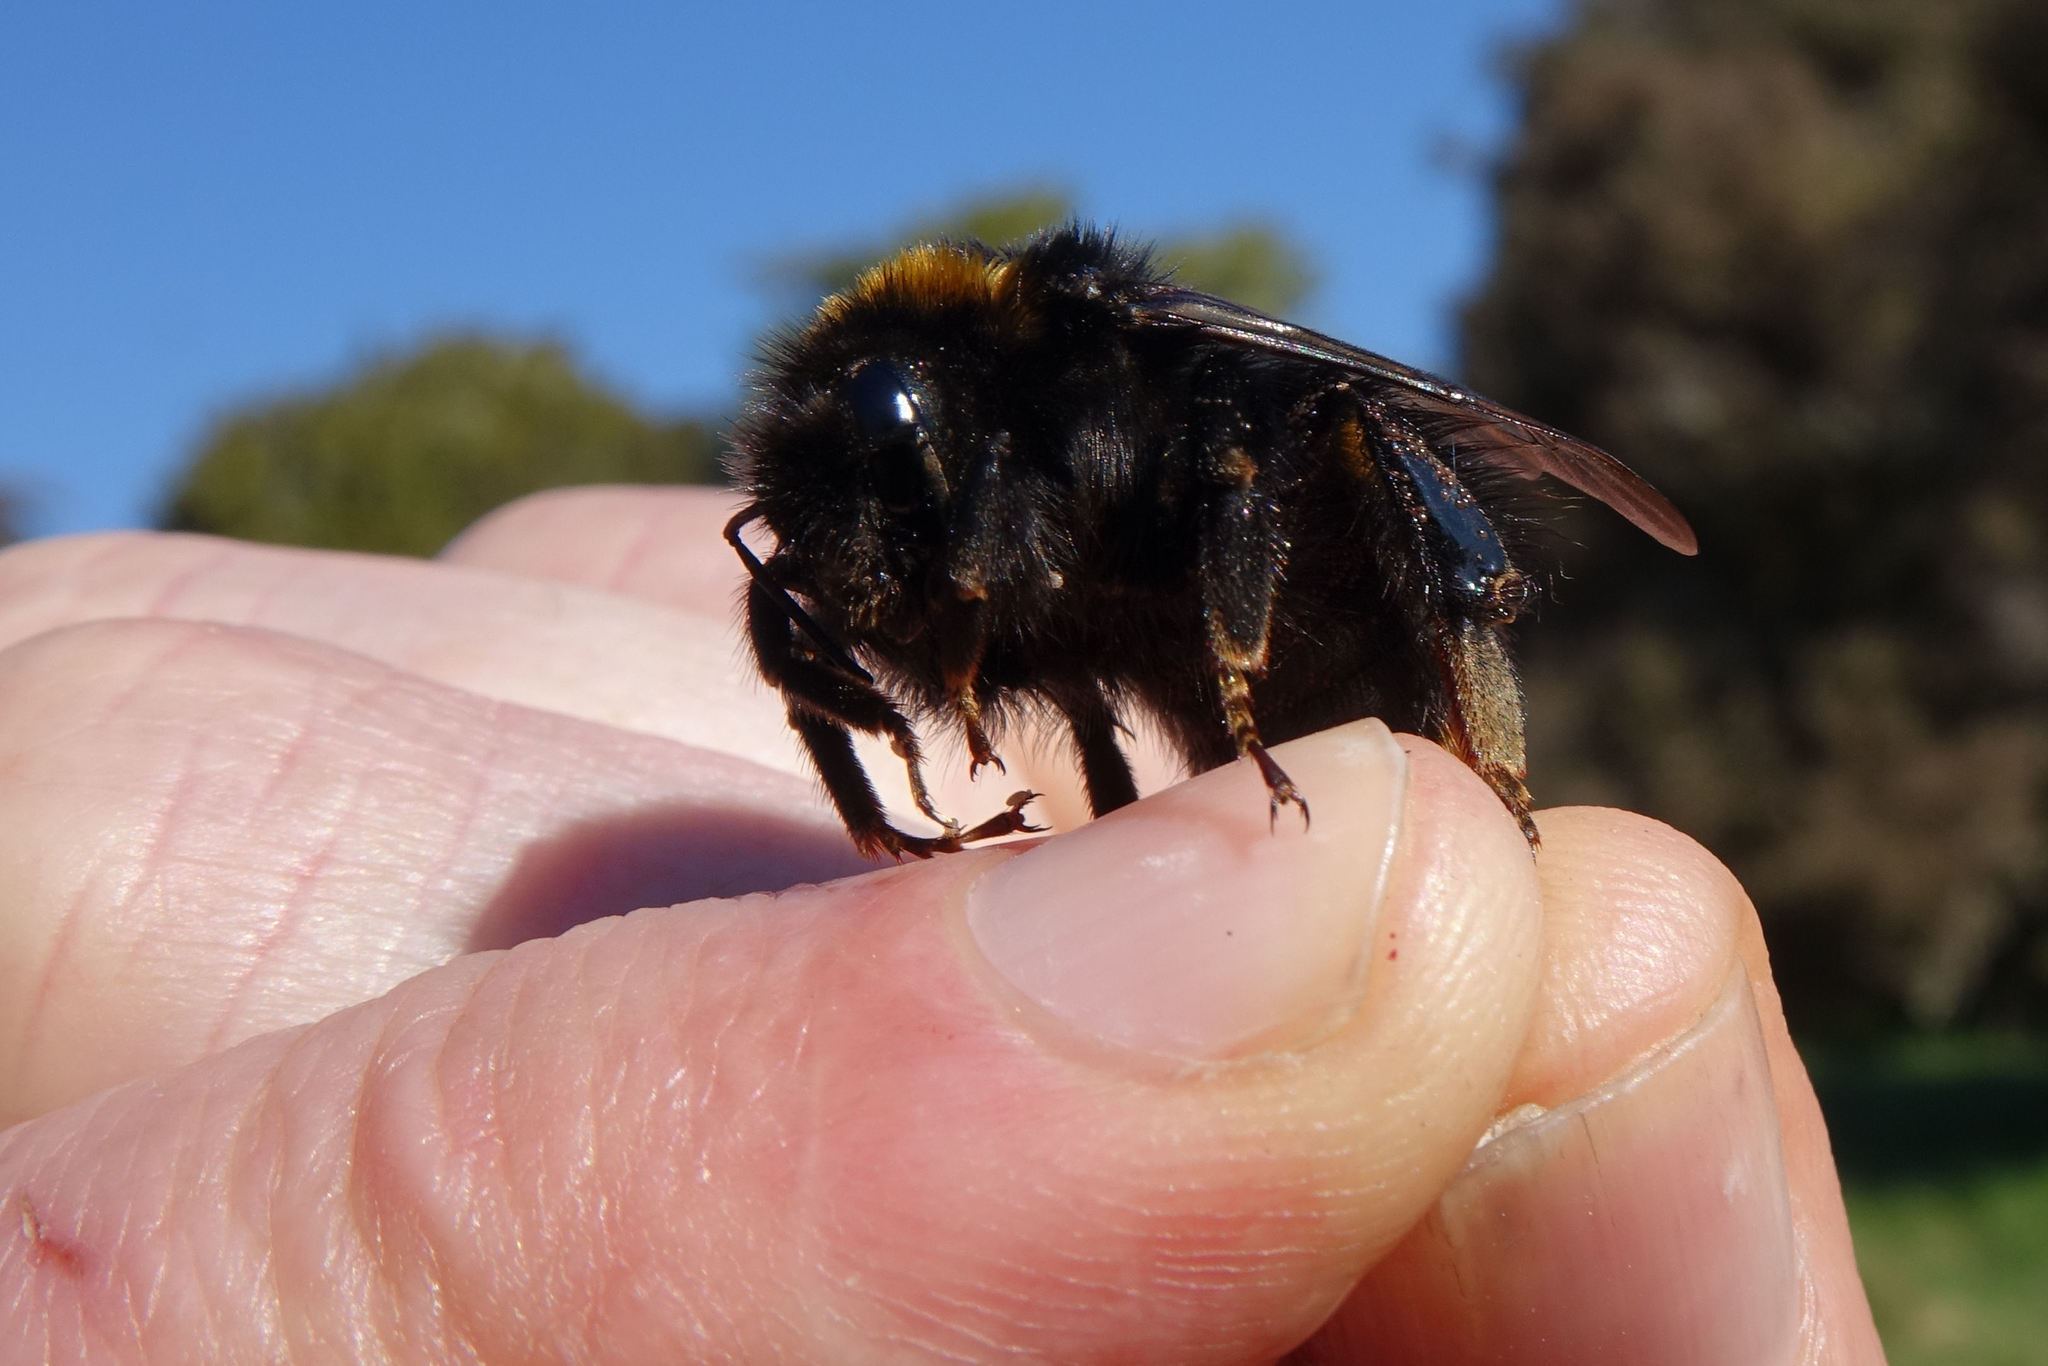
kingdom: Animalia
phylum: Arthropoda
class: Insecta
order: Hymenoptera
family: Apidae
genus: Bombus
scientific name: Bombus terrestris
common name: Buff-tailed bumblebee
